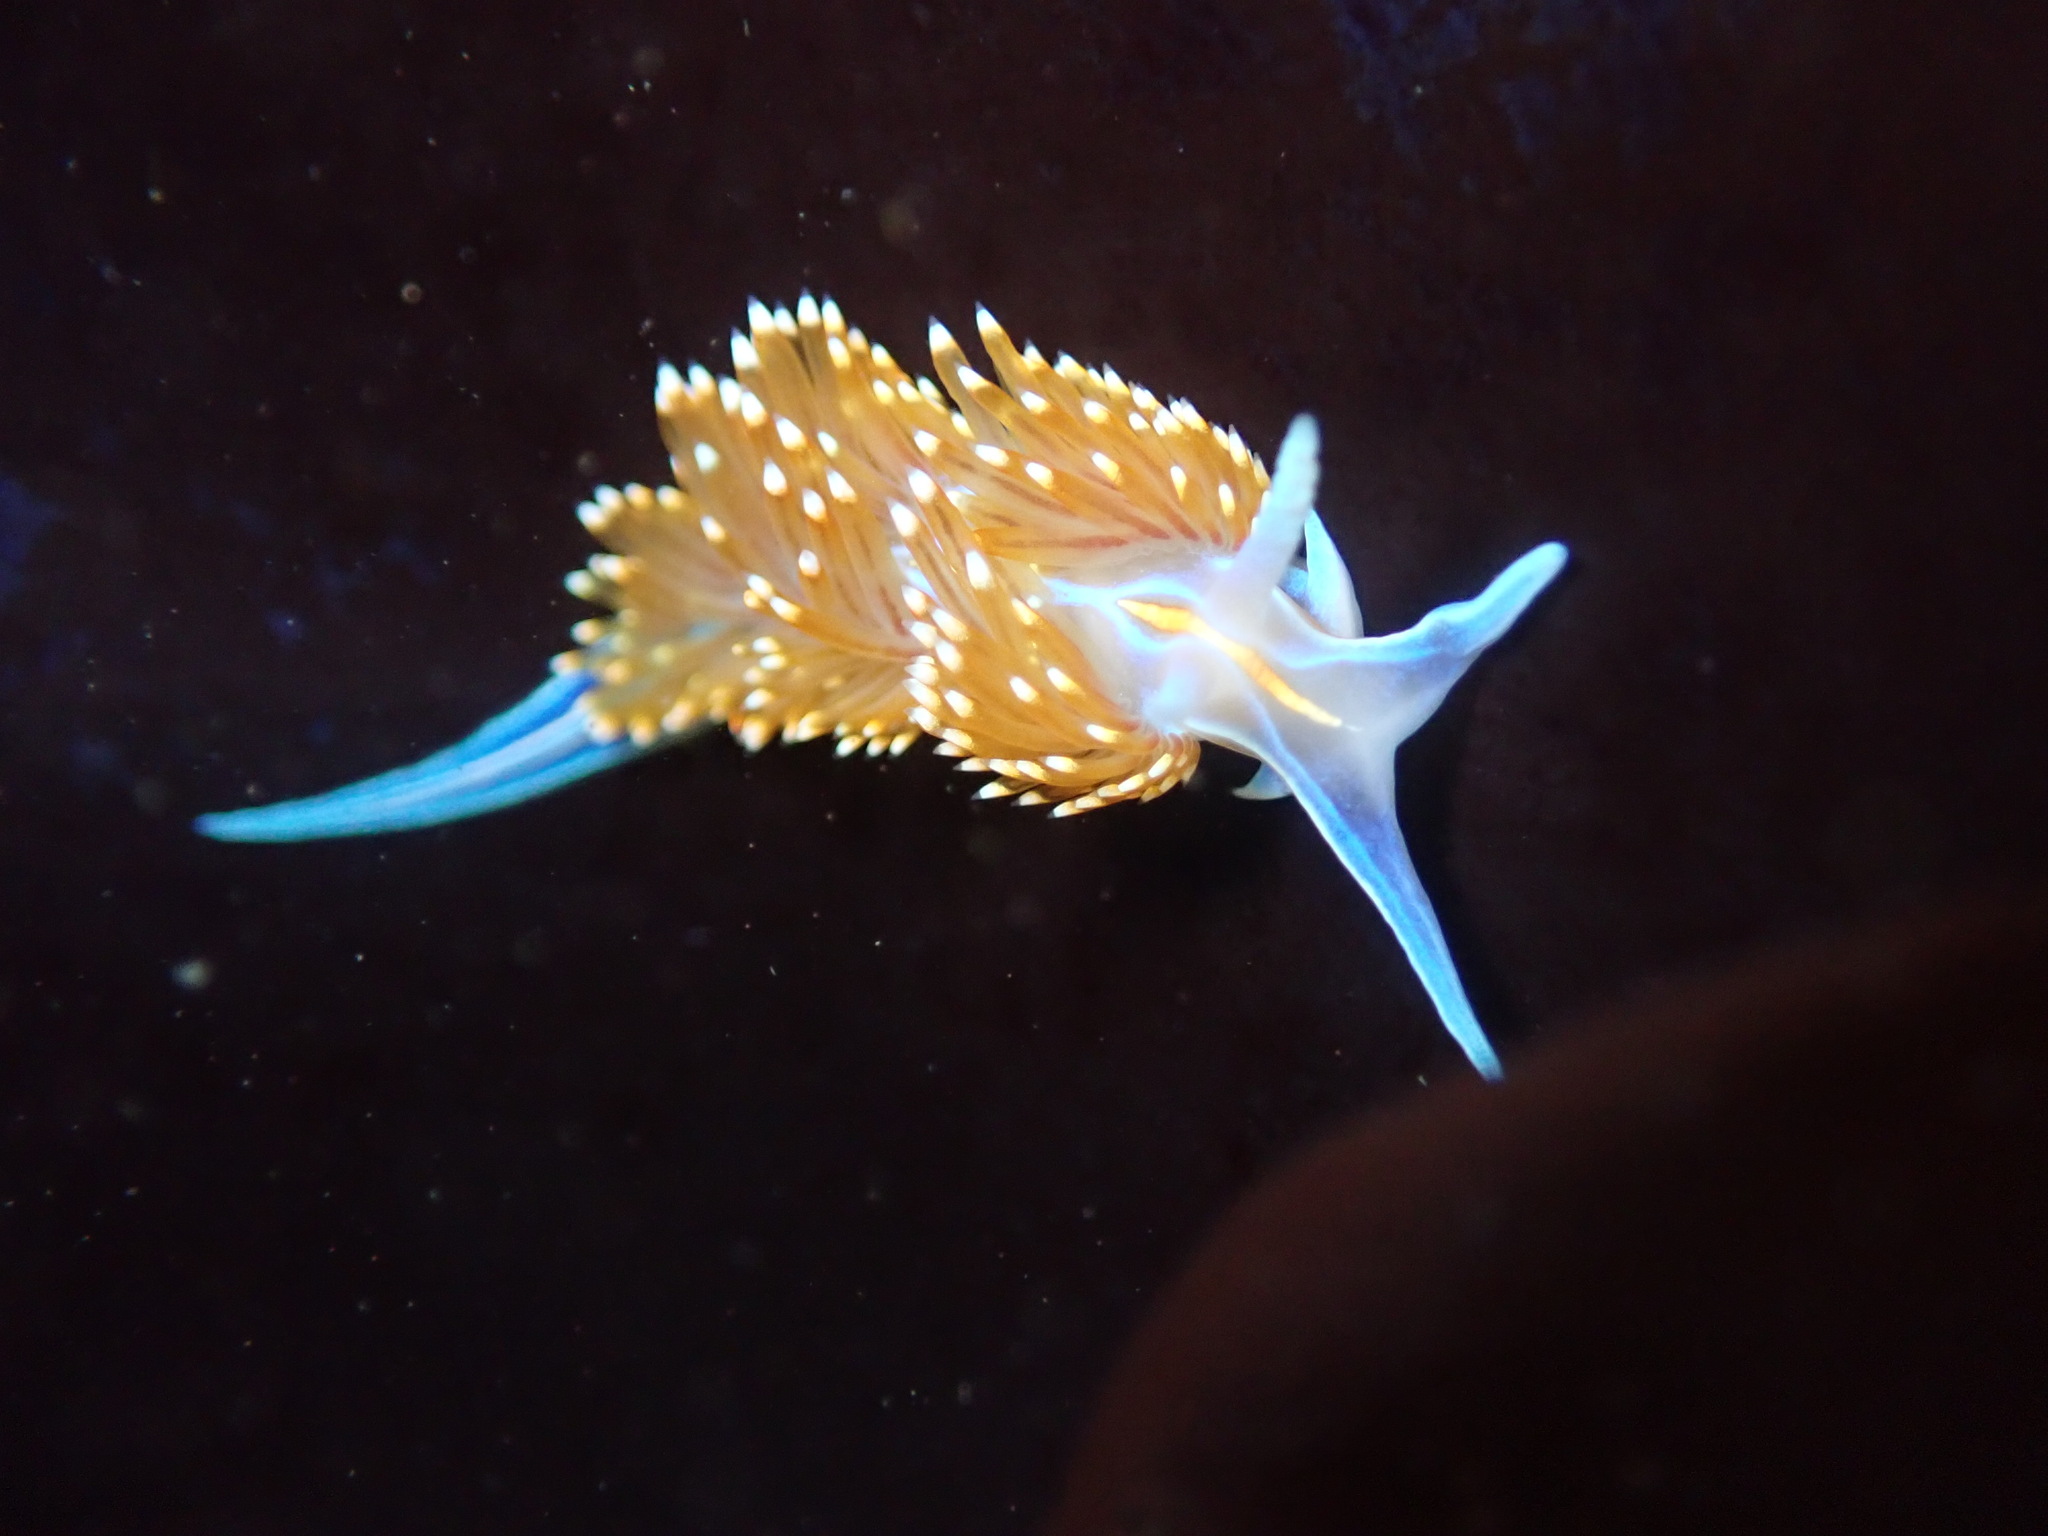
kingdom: Animalia
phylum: Mollusca
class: Gastropoda
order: Nudibranchia
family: Myrrhinidae
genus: Hermissenda
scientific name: Hermissenda opalescens
